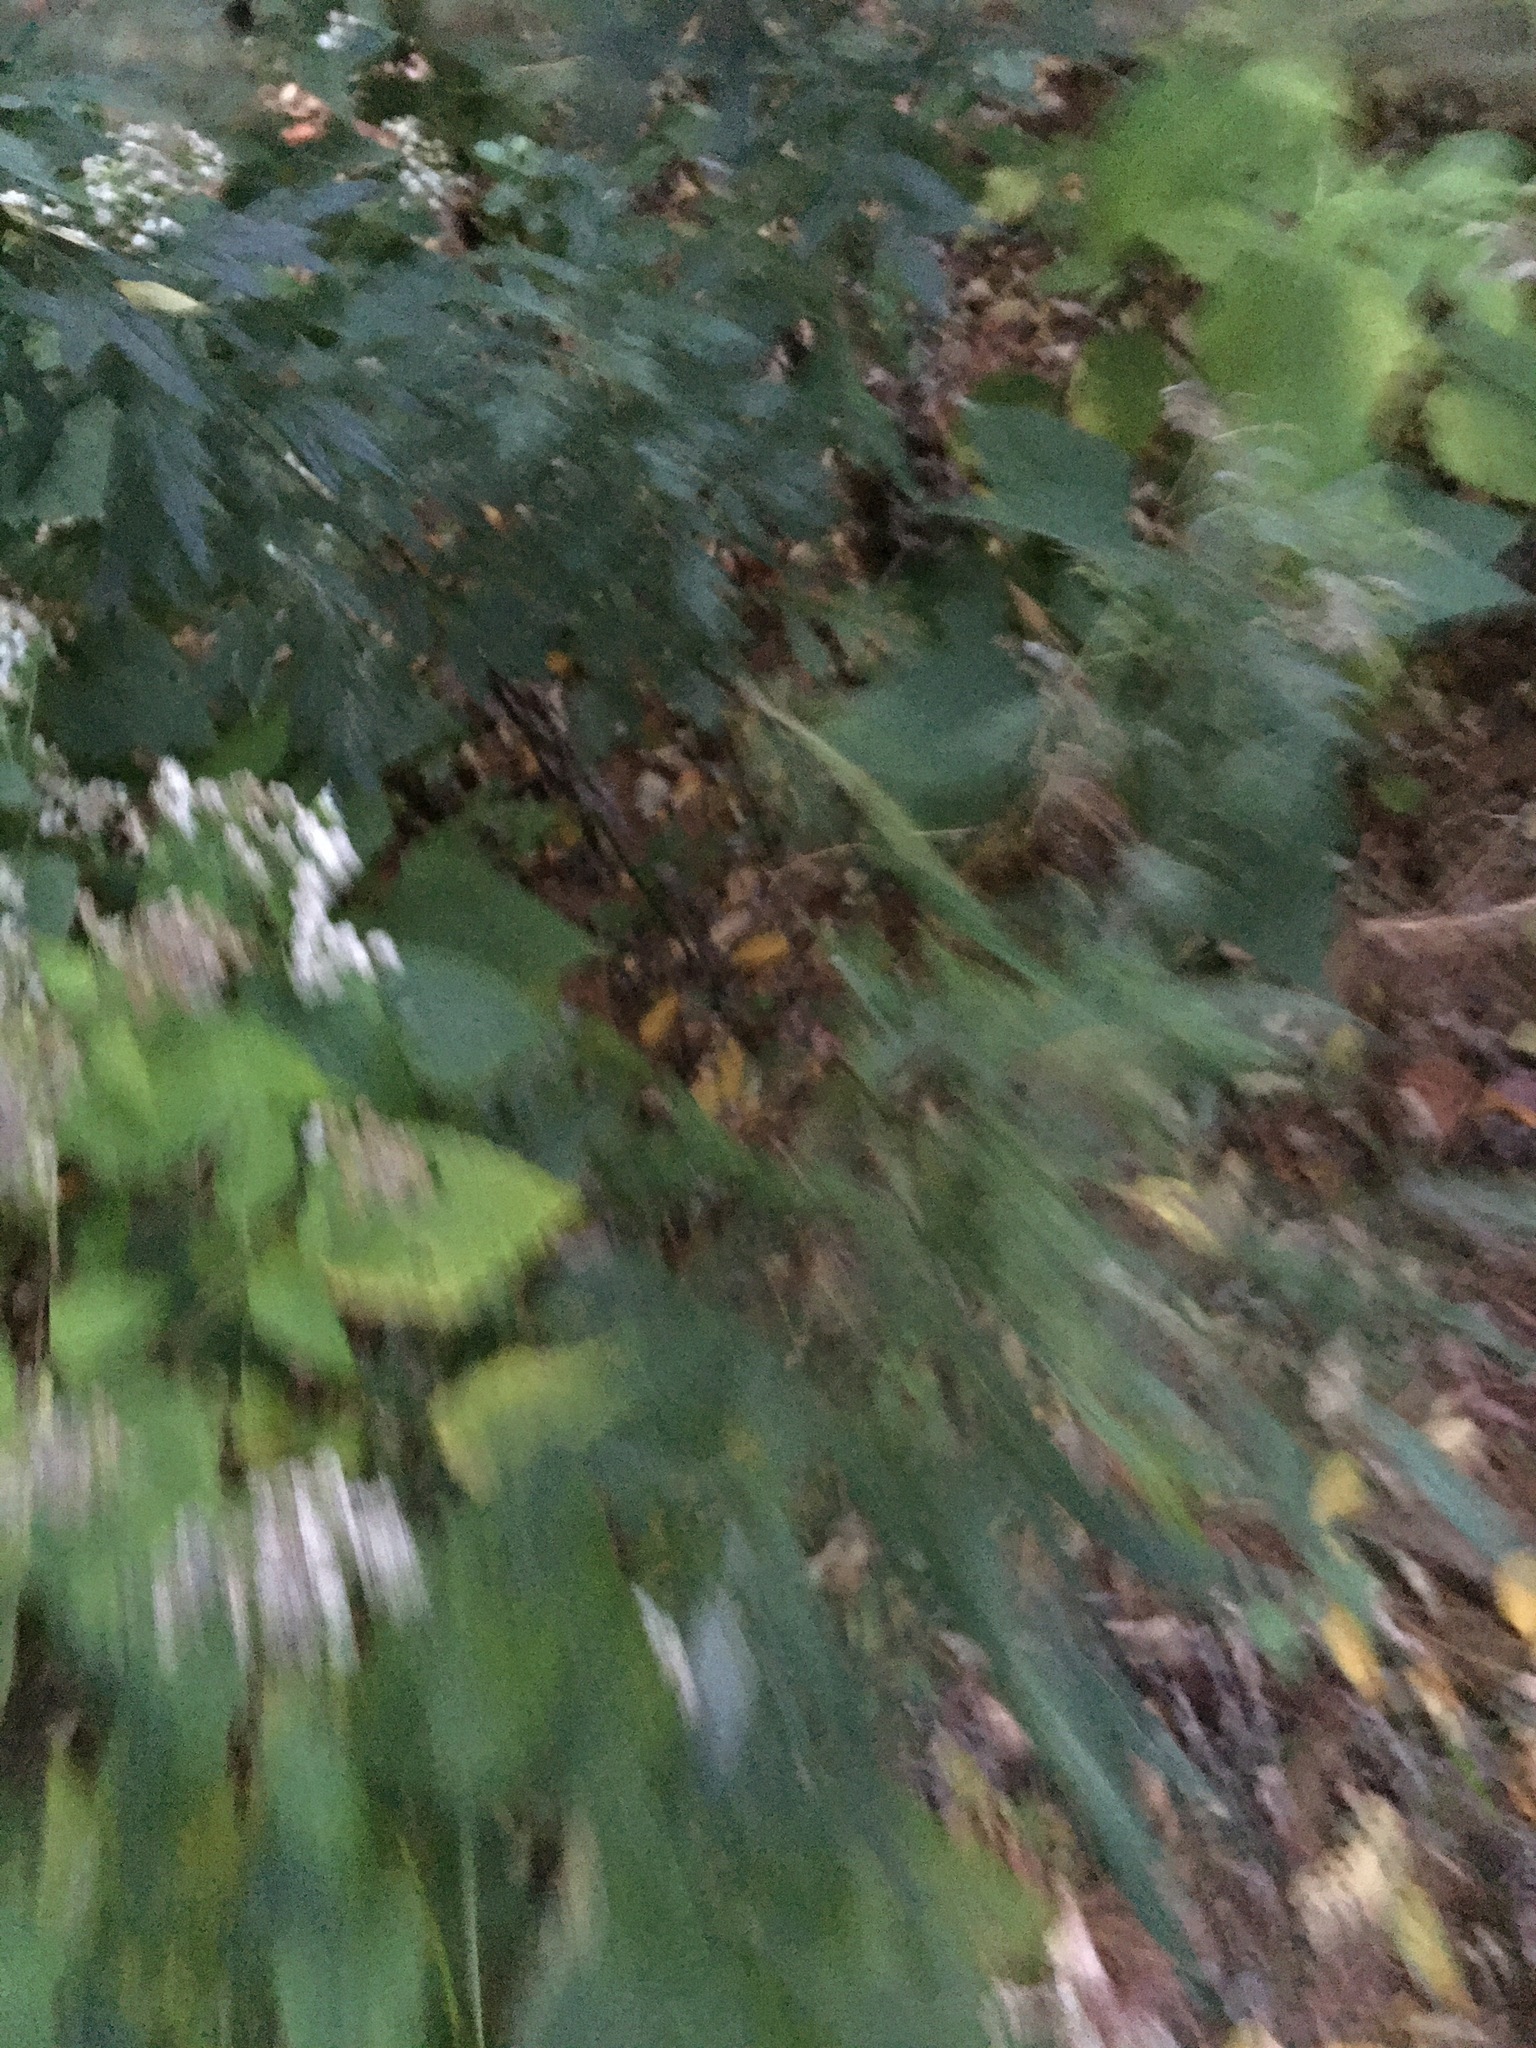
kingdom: Plantae
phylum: Tracheophyta
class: Magnoliopsida
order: Asterales
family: Asteraceae
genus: Artemisia
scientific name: Artemisia vulgaris
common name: Mugwort
